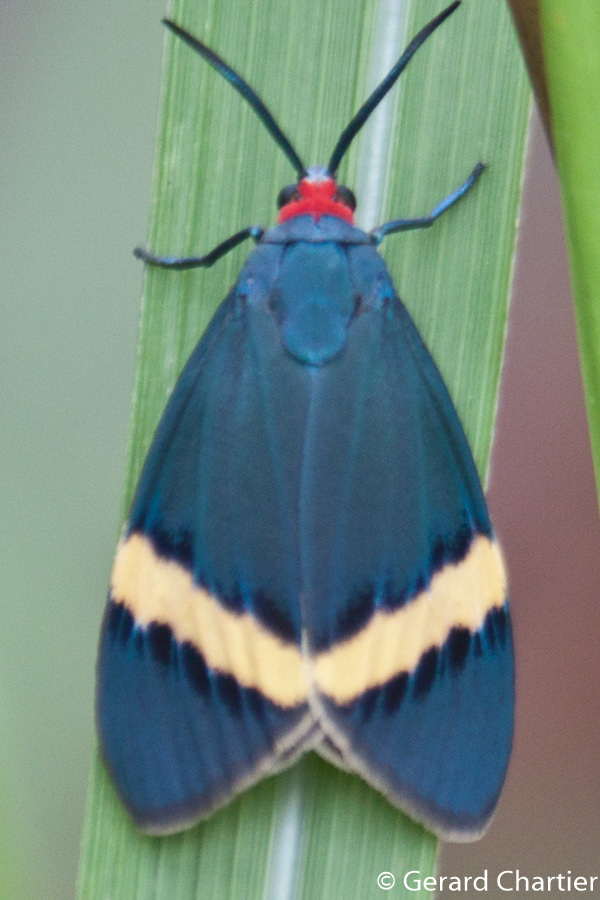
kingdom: Animalia
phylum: Arthropoda
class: Insecta
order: Lepidoptera
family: Zygaenidae
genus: Pidorus
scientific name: Pidorus gemina
